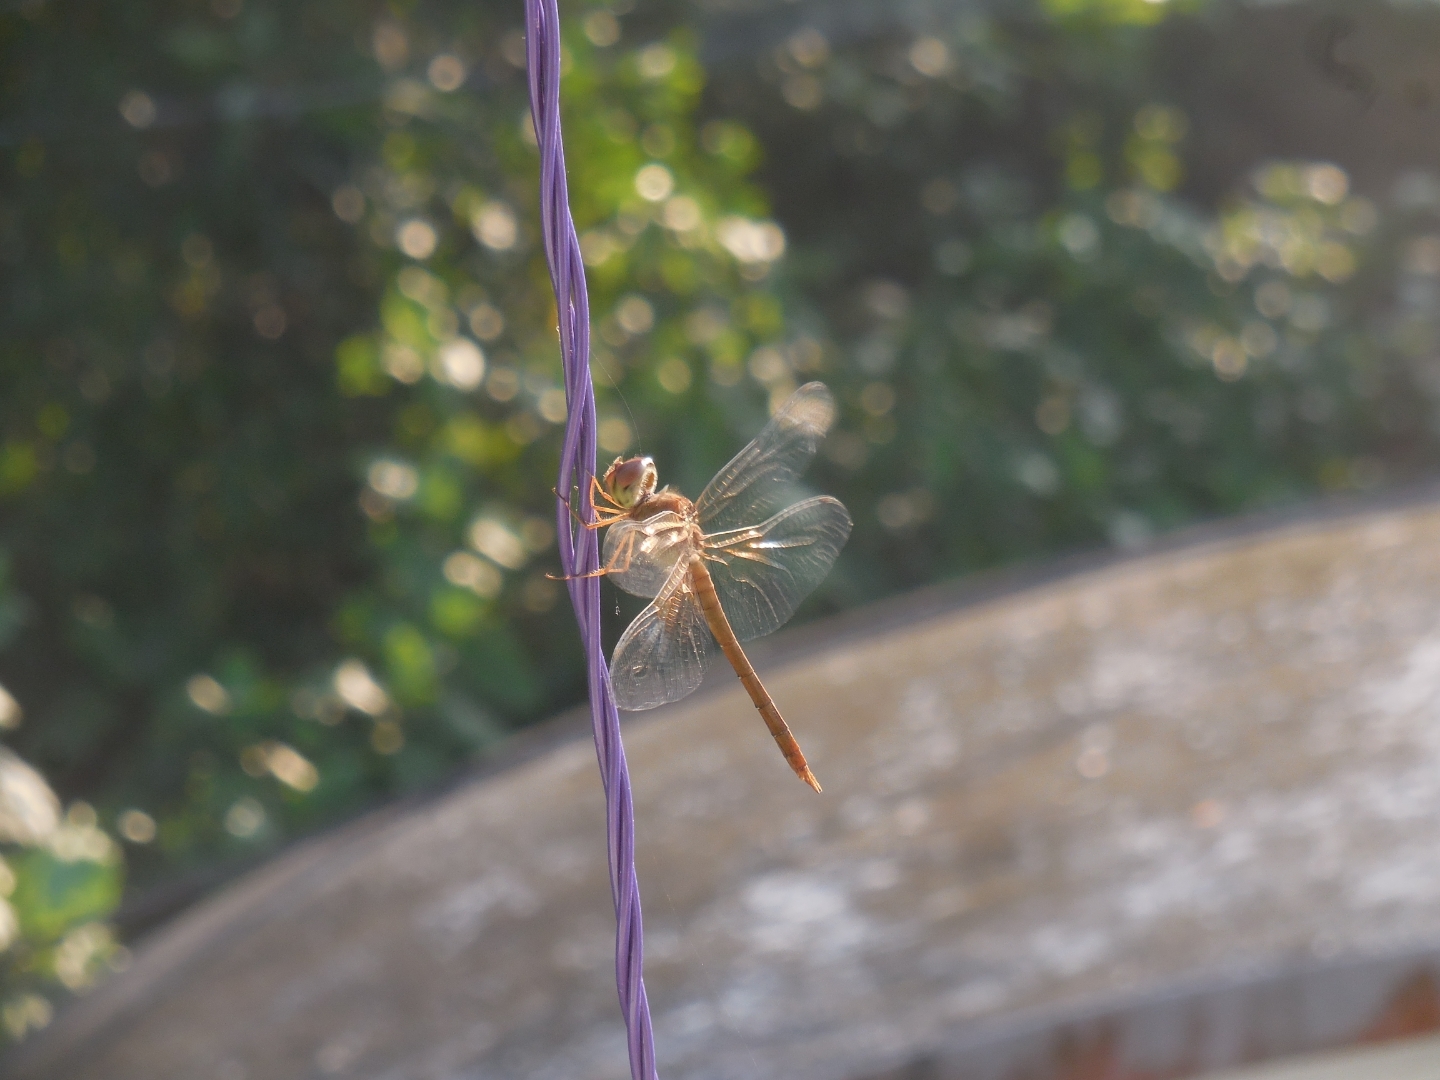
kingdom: Animalia
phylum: Arthropoda
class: Insecta
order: Odonata
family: Libellulidae
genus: Tholymis
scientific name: Tholymis tillarga
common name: Coral-tailed cloud wing
